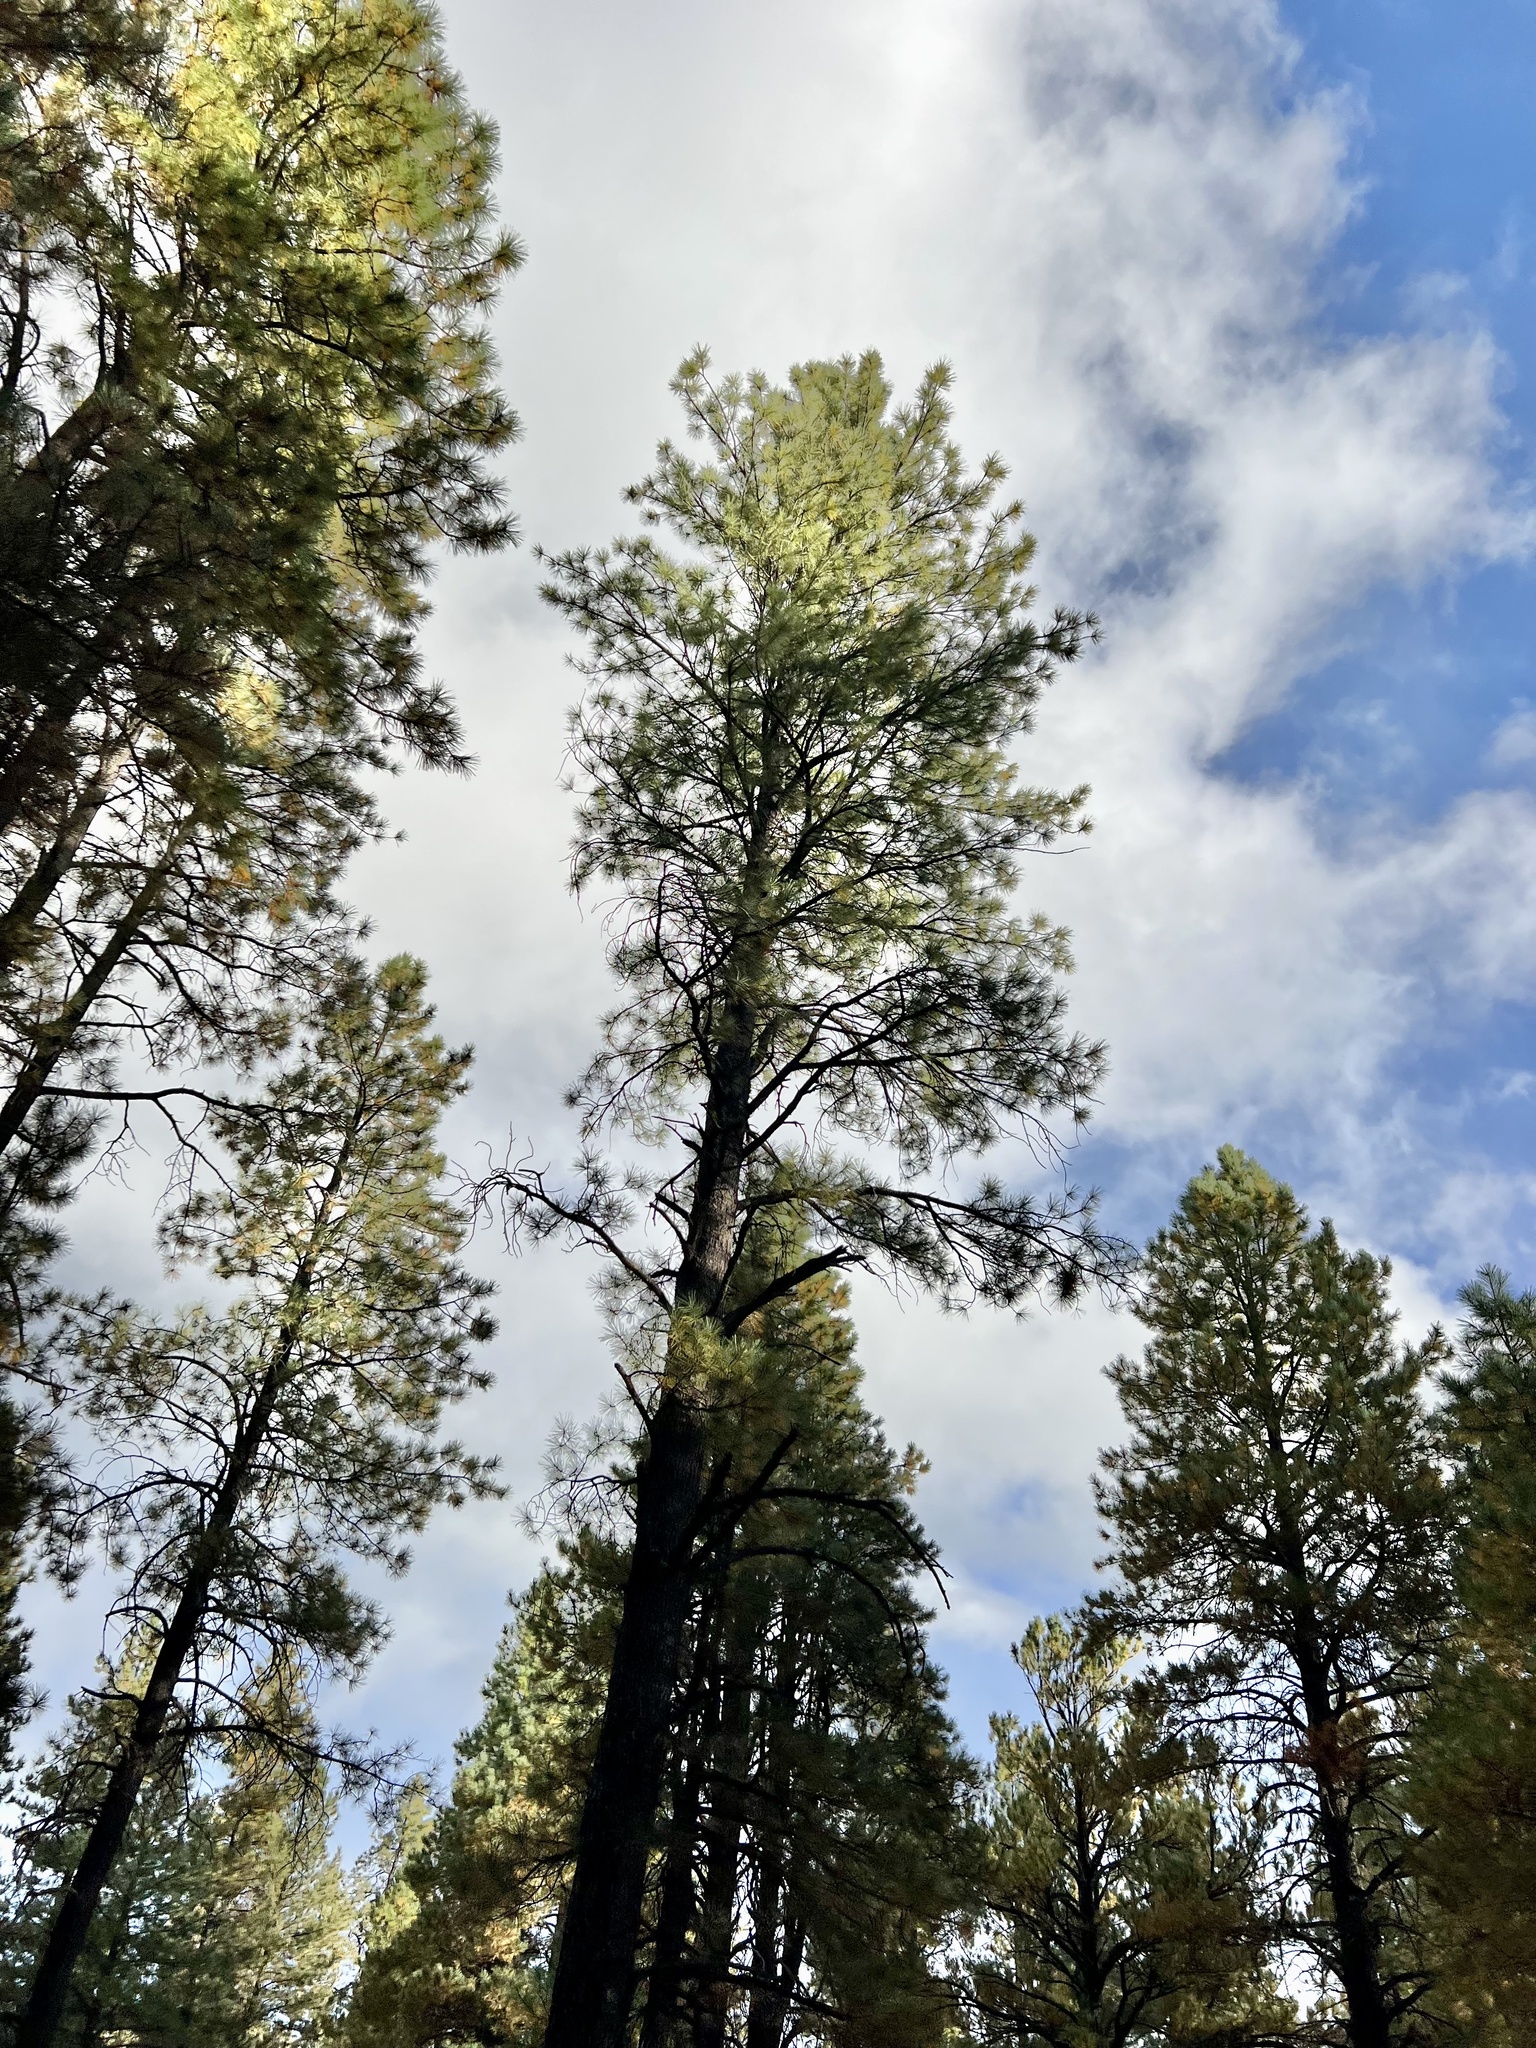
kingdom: Plantae
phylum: Tracheophyta
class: Pinopsida
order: Pinales
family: Pinaceae
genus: Pinus
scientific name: Pinus ponderosa
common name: Western yellow-pine
